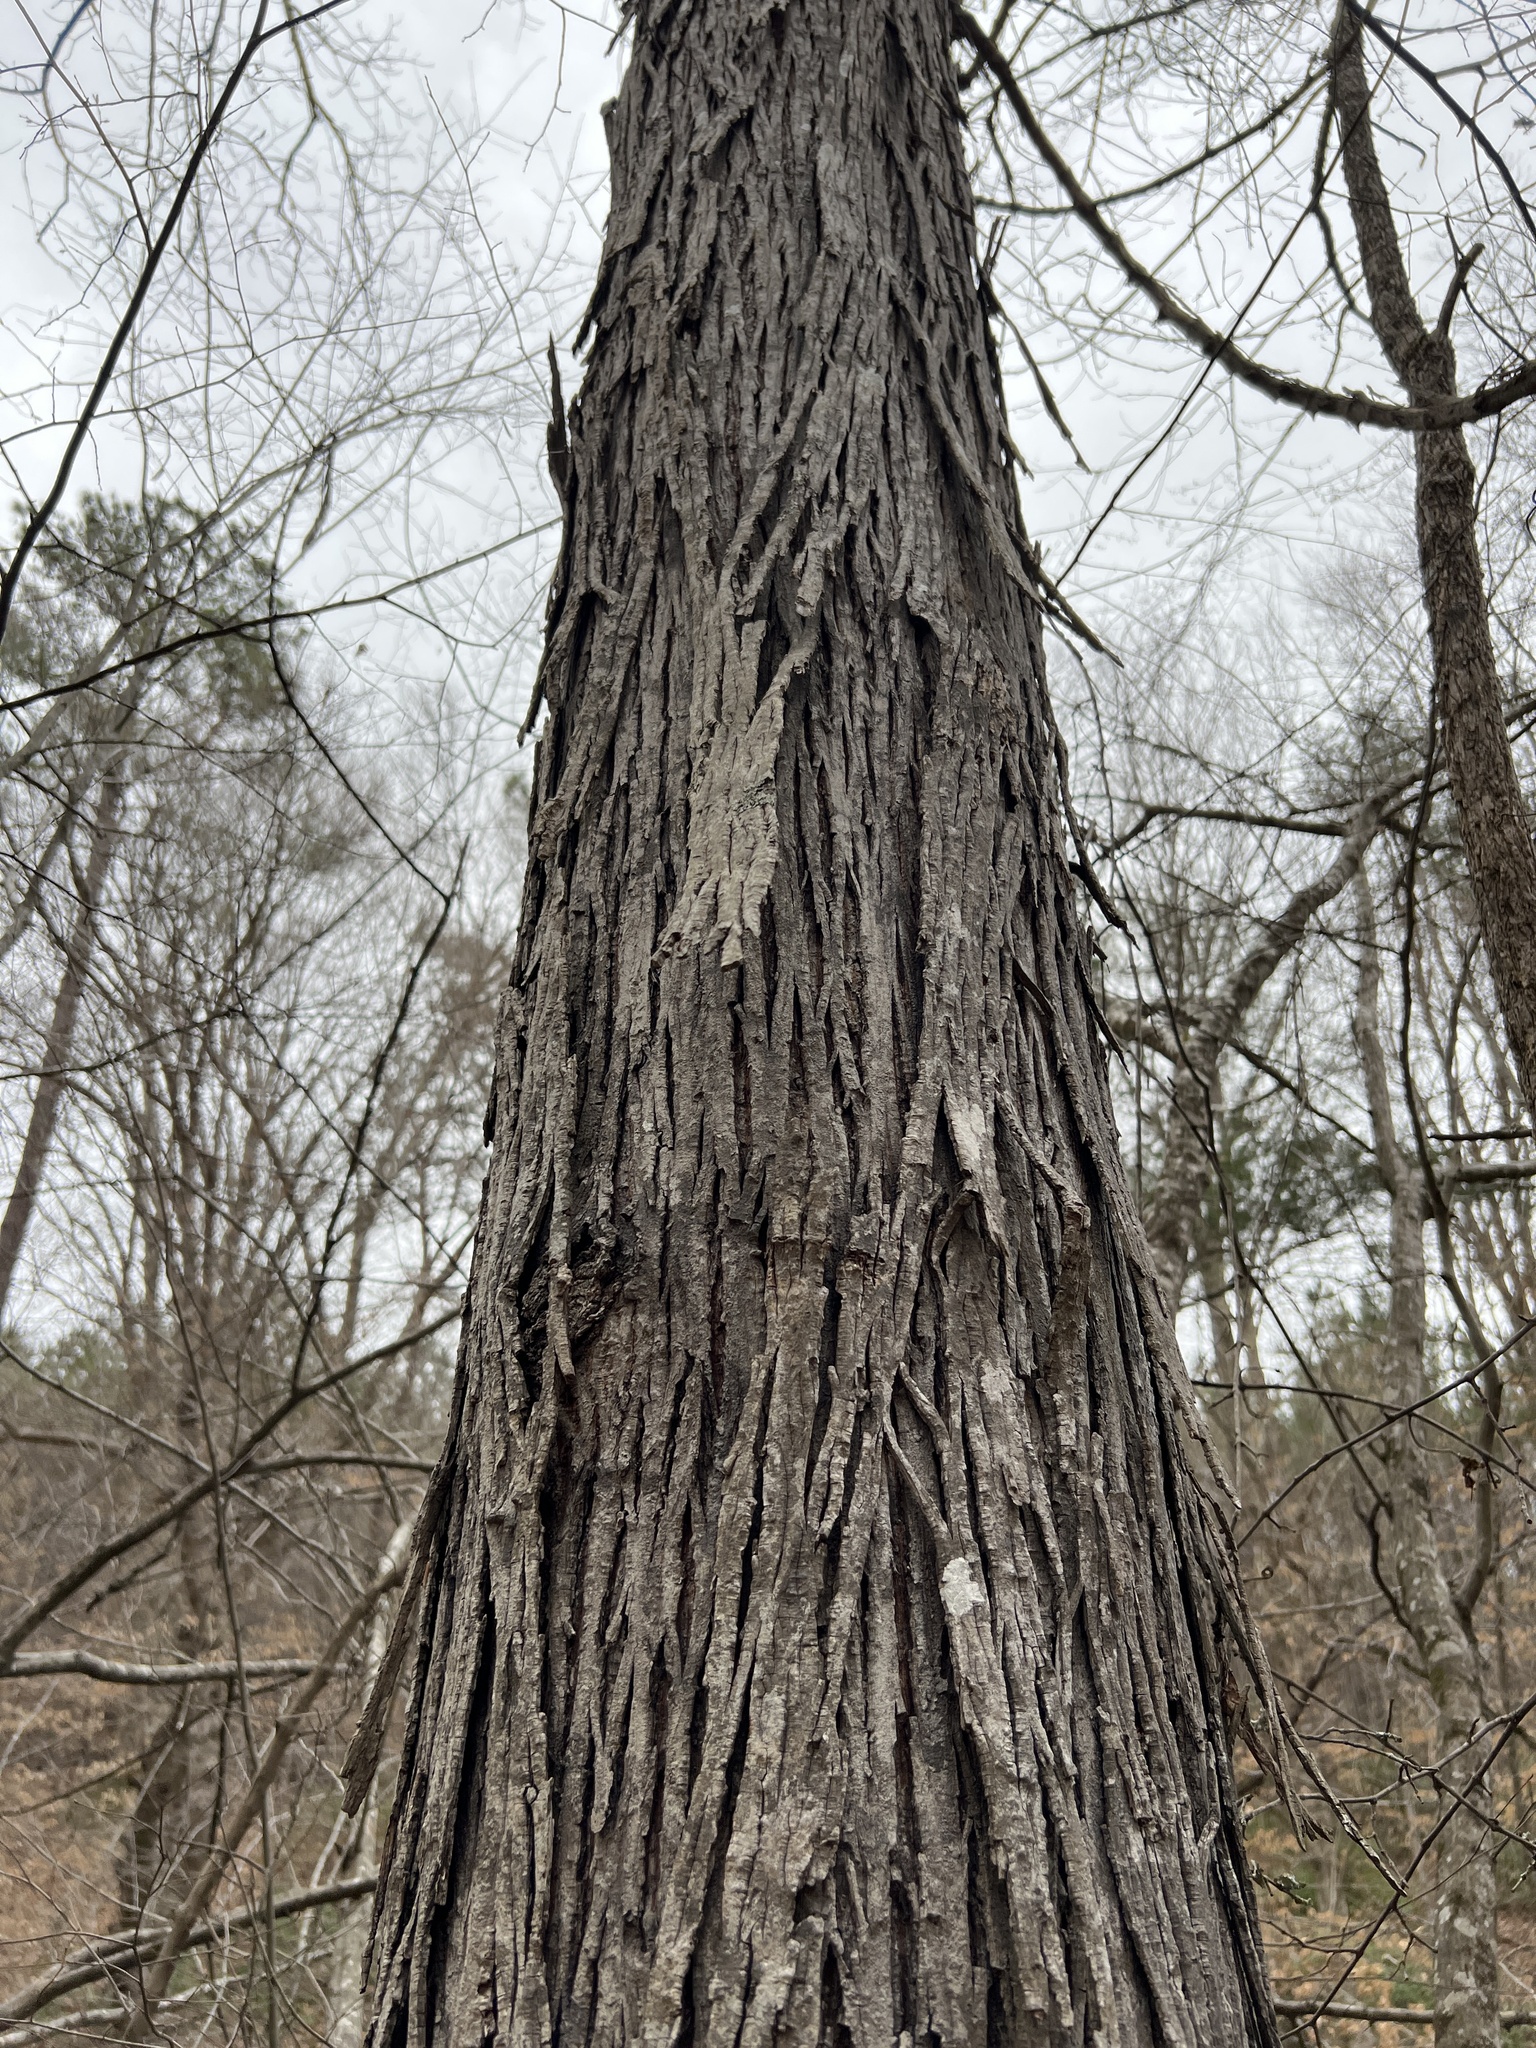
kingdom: Plantae
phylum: Tracheophyta
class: Magnoliopsida
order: Fagales
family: Juglandaceae
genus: Carya
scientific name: Carya ovata
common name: Shagbark hickory
